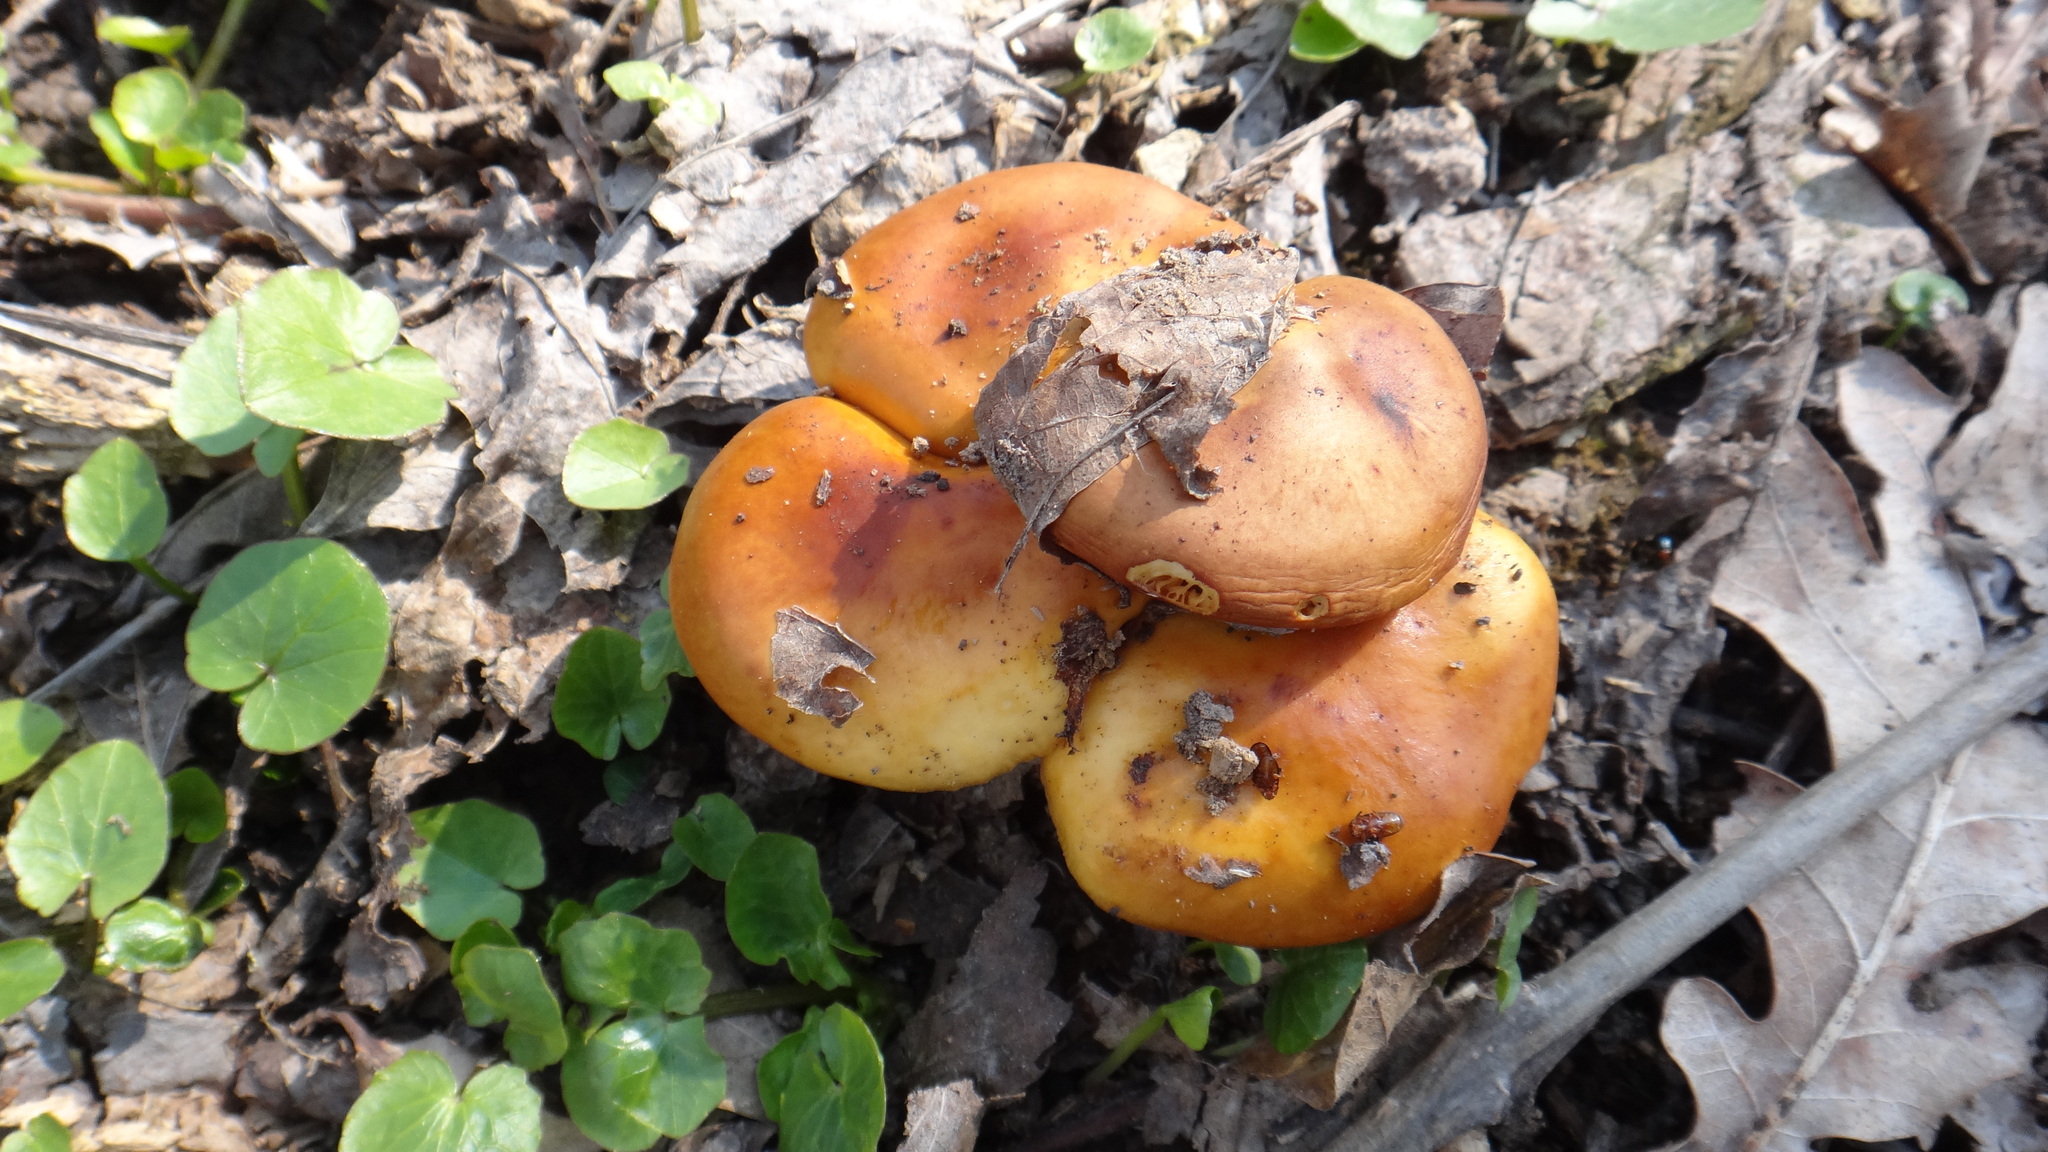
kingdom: Fungi
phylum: Basidiomycota
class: Agaricomycetes
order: Agaricales
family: Physalacriaceae
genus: Flammulina
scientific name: Flammulina
